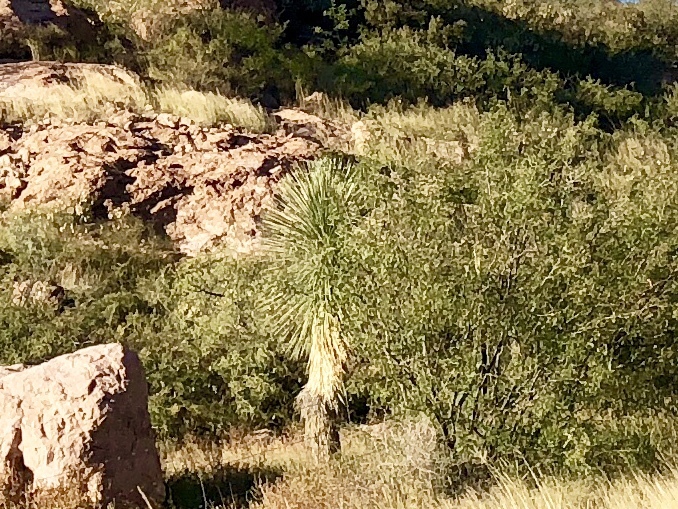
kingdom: Plantae
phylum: Tracheophyta
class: Liliopsida
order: Asparagales
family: Asparagaceae
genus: Yucca
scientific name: Yucca elata
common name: Palmella
